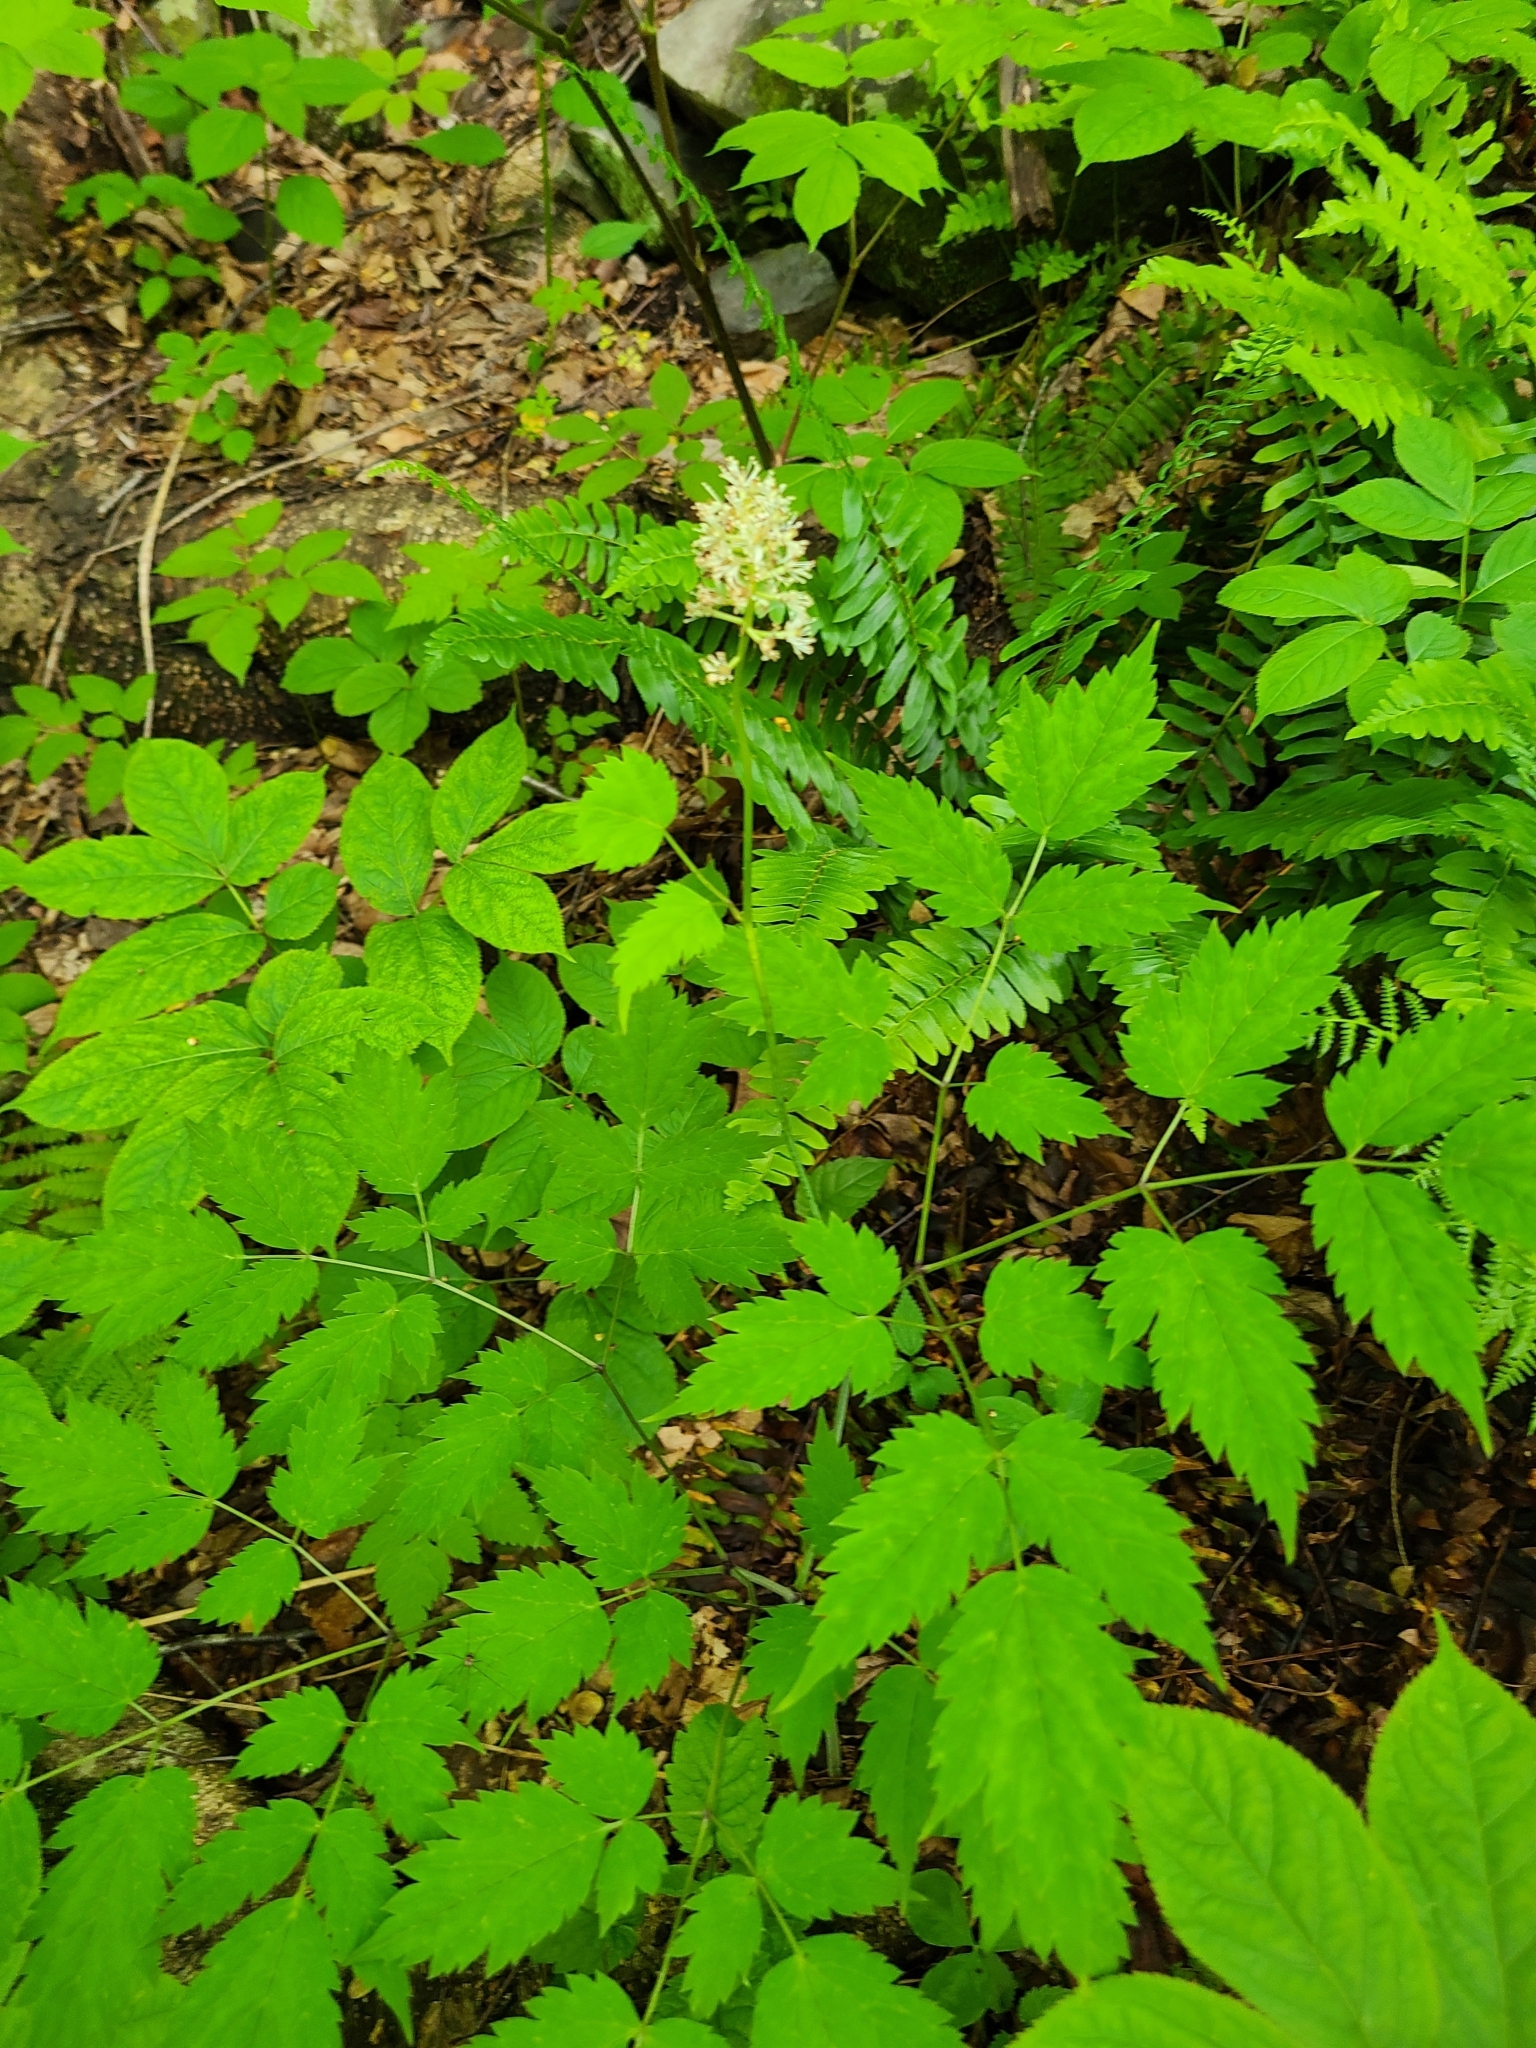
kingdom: Plantae
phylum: Tracheophyta
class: Magnoliopsida
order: Ranunculales
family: Ranunculaceae
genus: Actaea
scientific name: Actaea pachypoda
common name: Doll's-eyes
